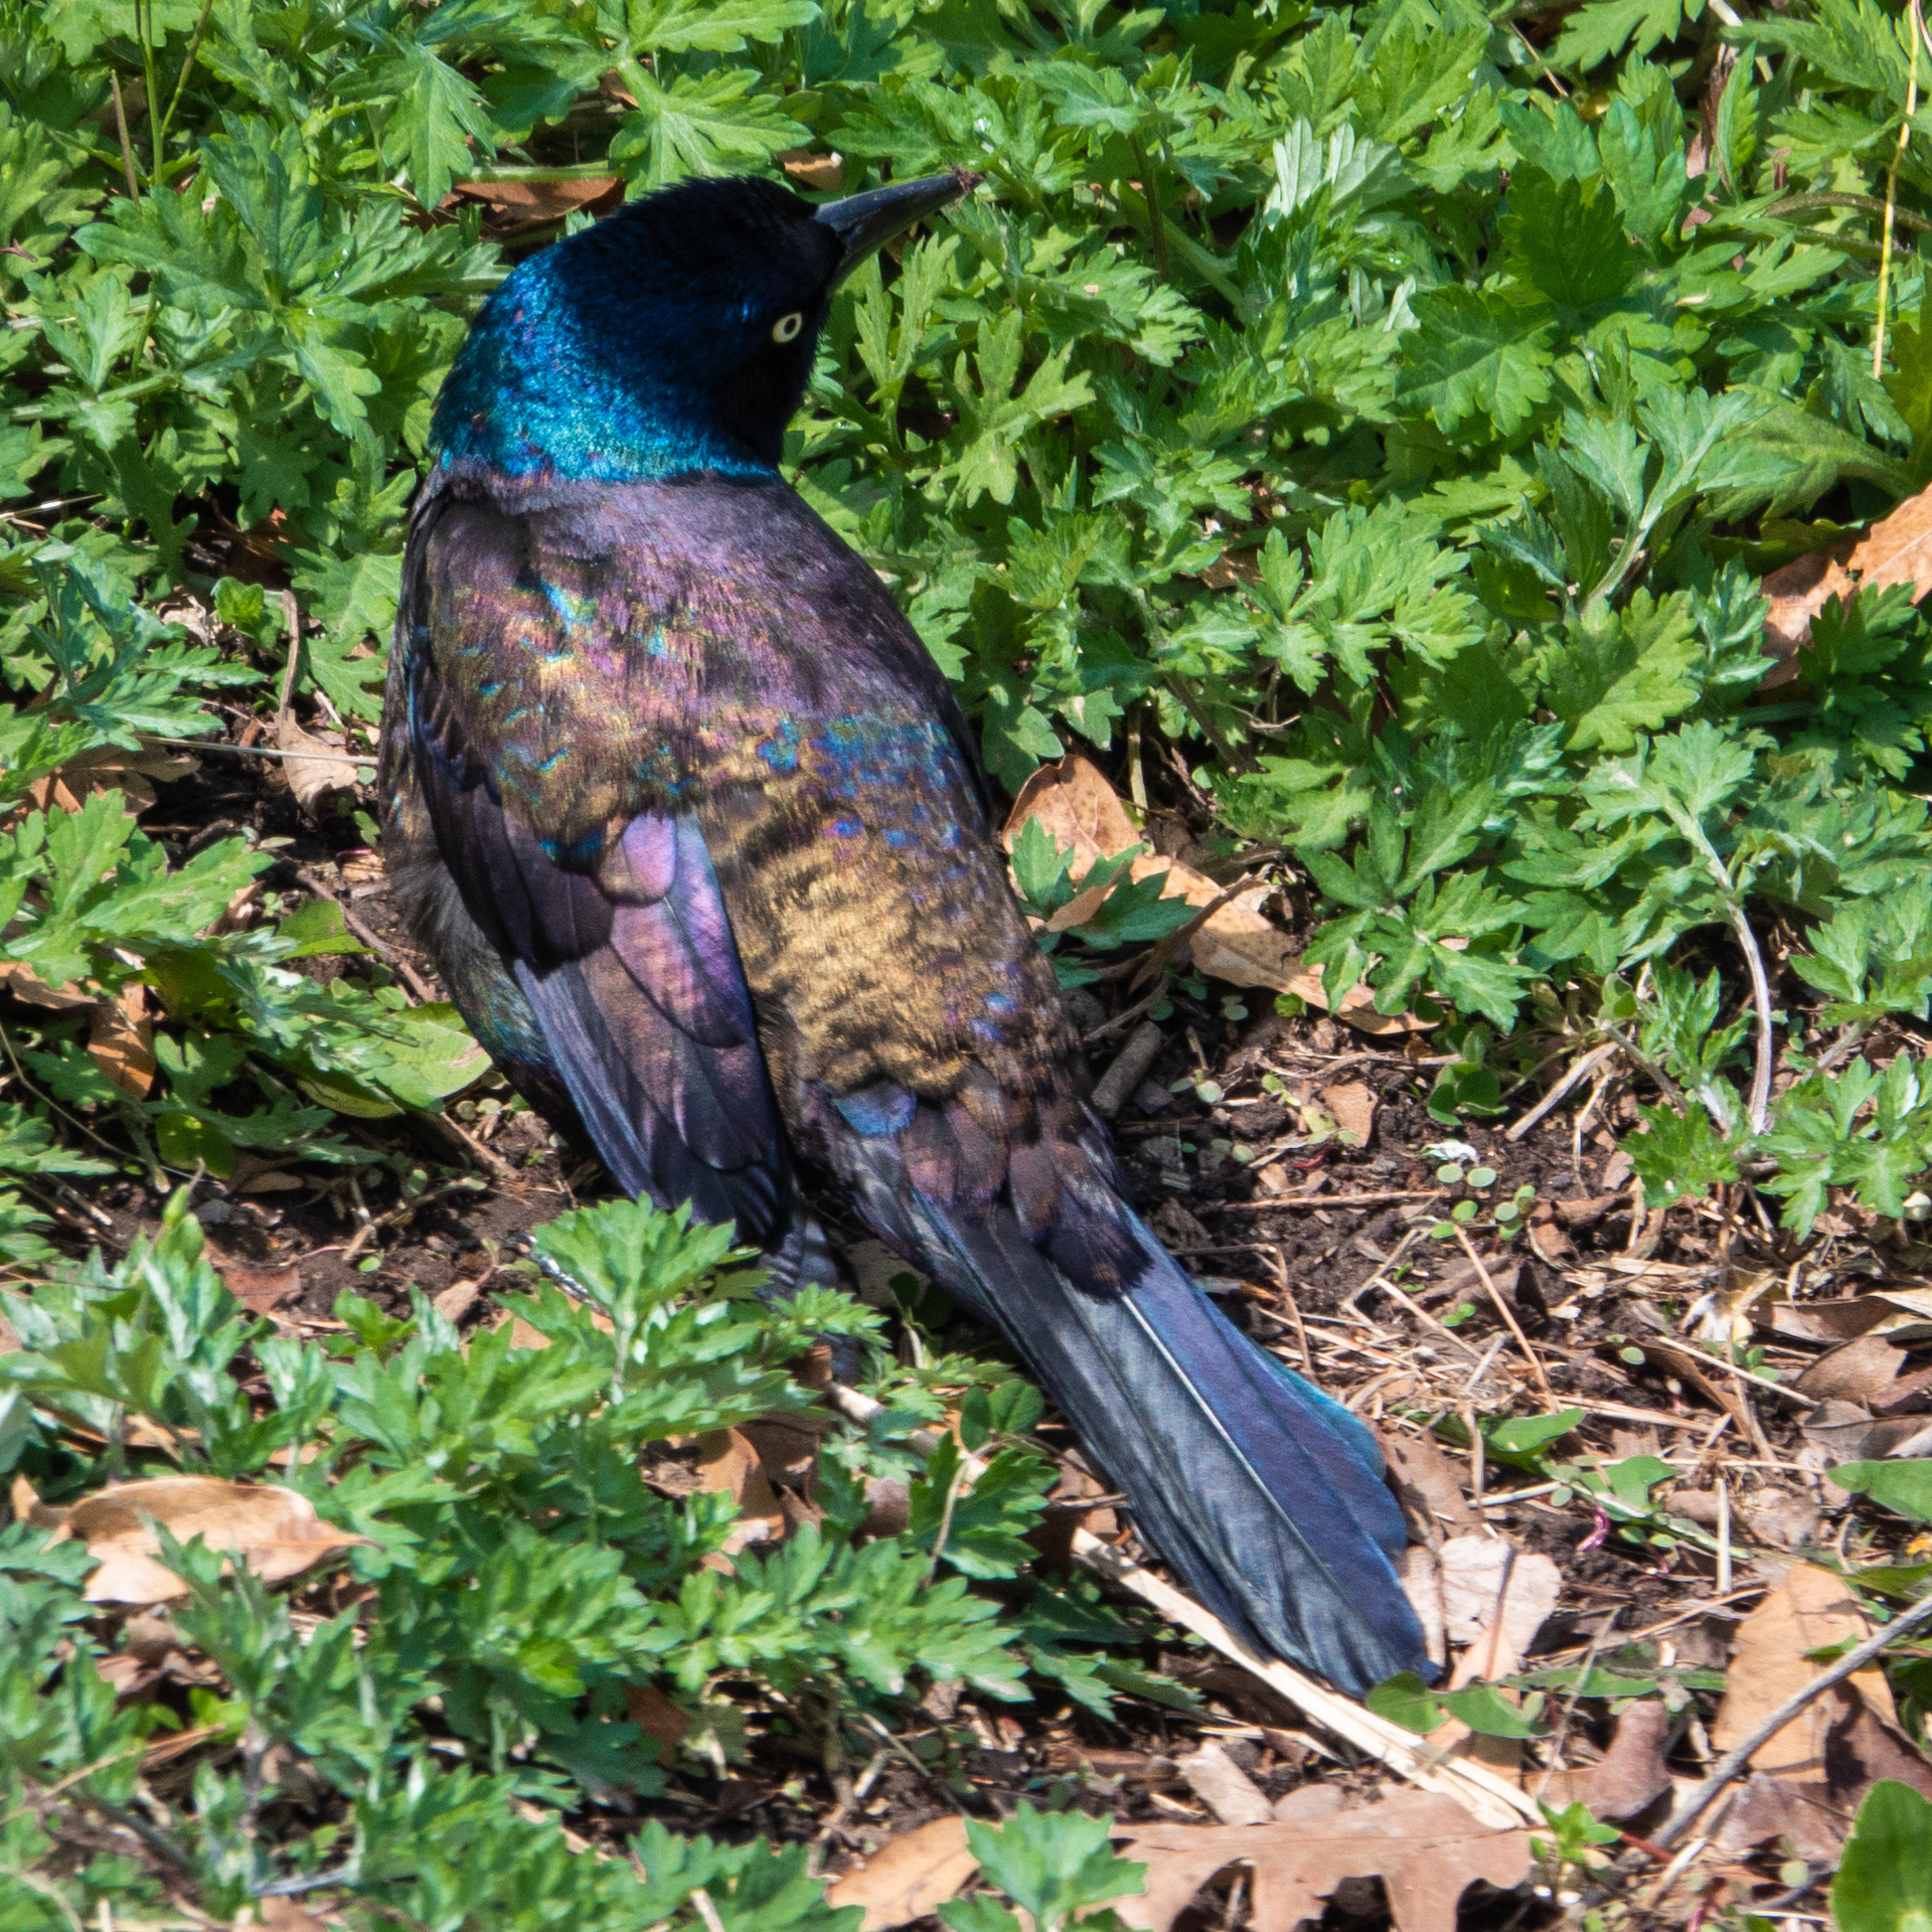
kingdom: Animalia
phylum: Chordata
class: Aves
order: Passeriformes
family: Icteridae
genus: Quiscalus
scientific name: Quiscalus quiscula
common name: Common grackle
